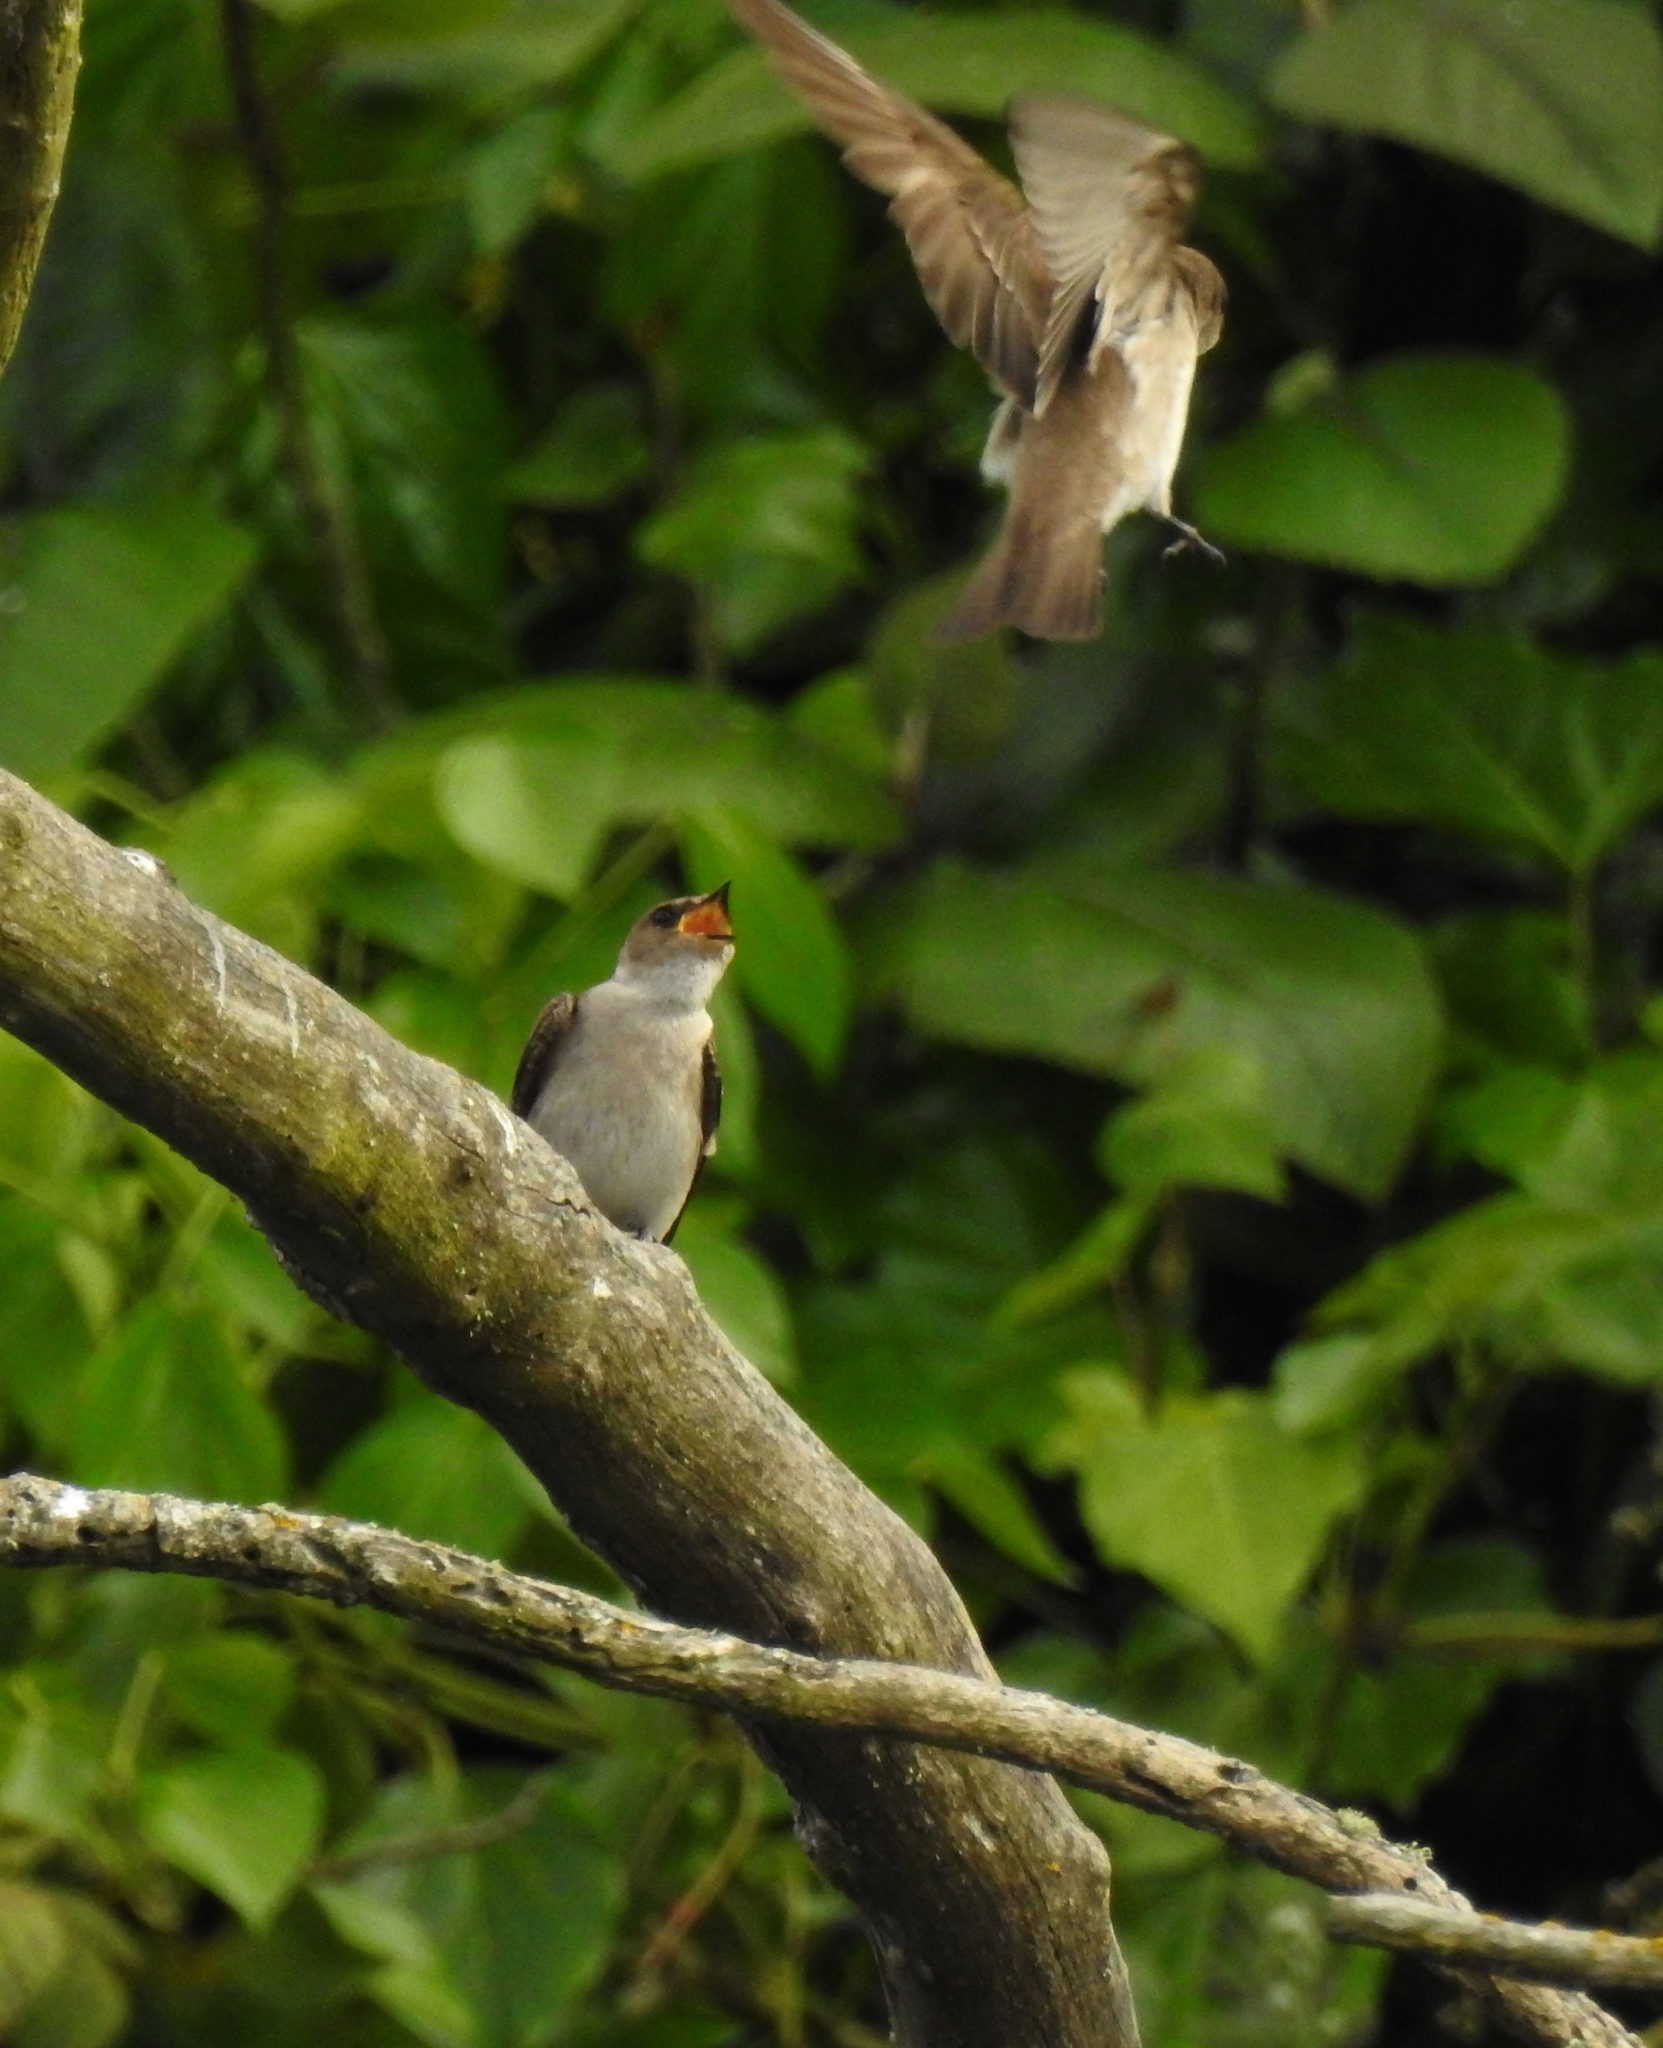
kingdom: Animalia
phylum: Chordata
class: Aves
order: Passeriformes
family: Hirundinidae
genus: Stelgidopteryx
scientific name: Stelgidopteryx serripennis
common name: Northern rough-winged swallow
